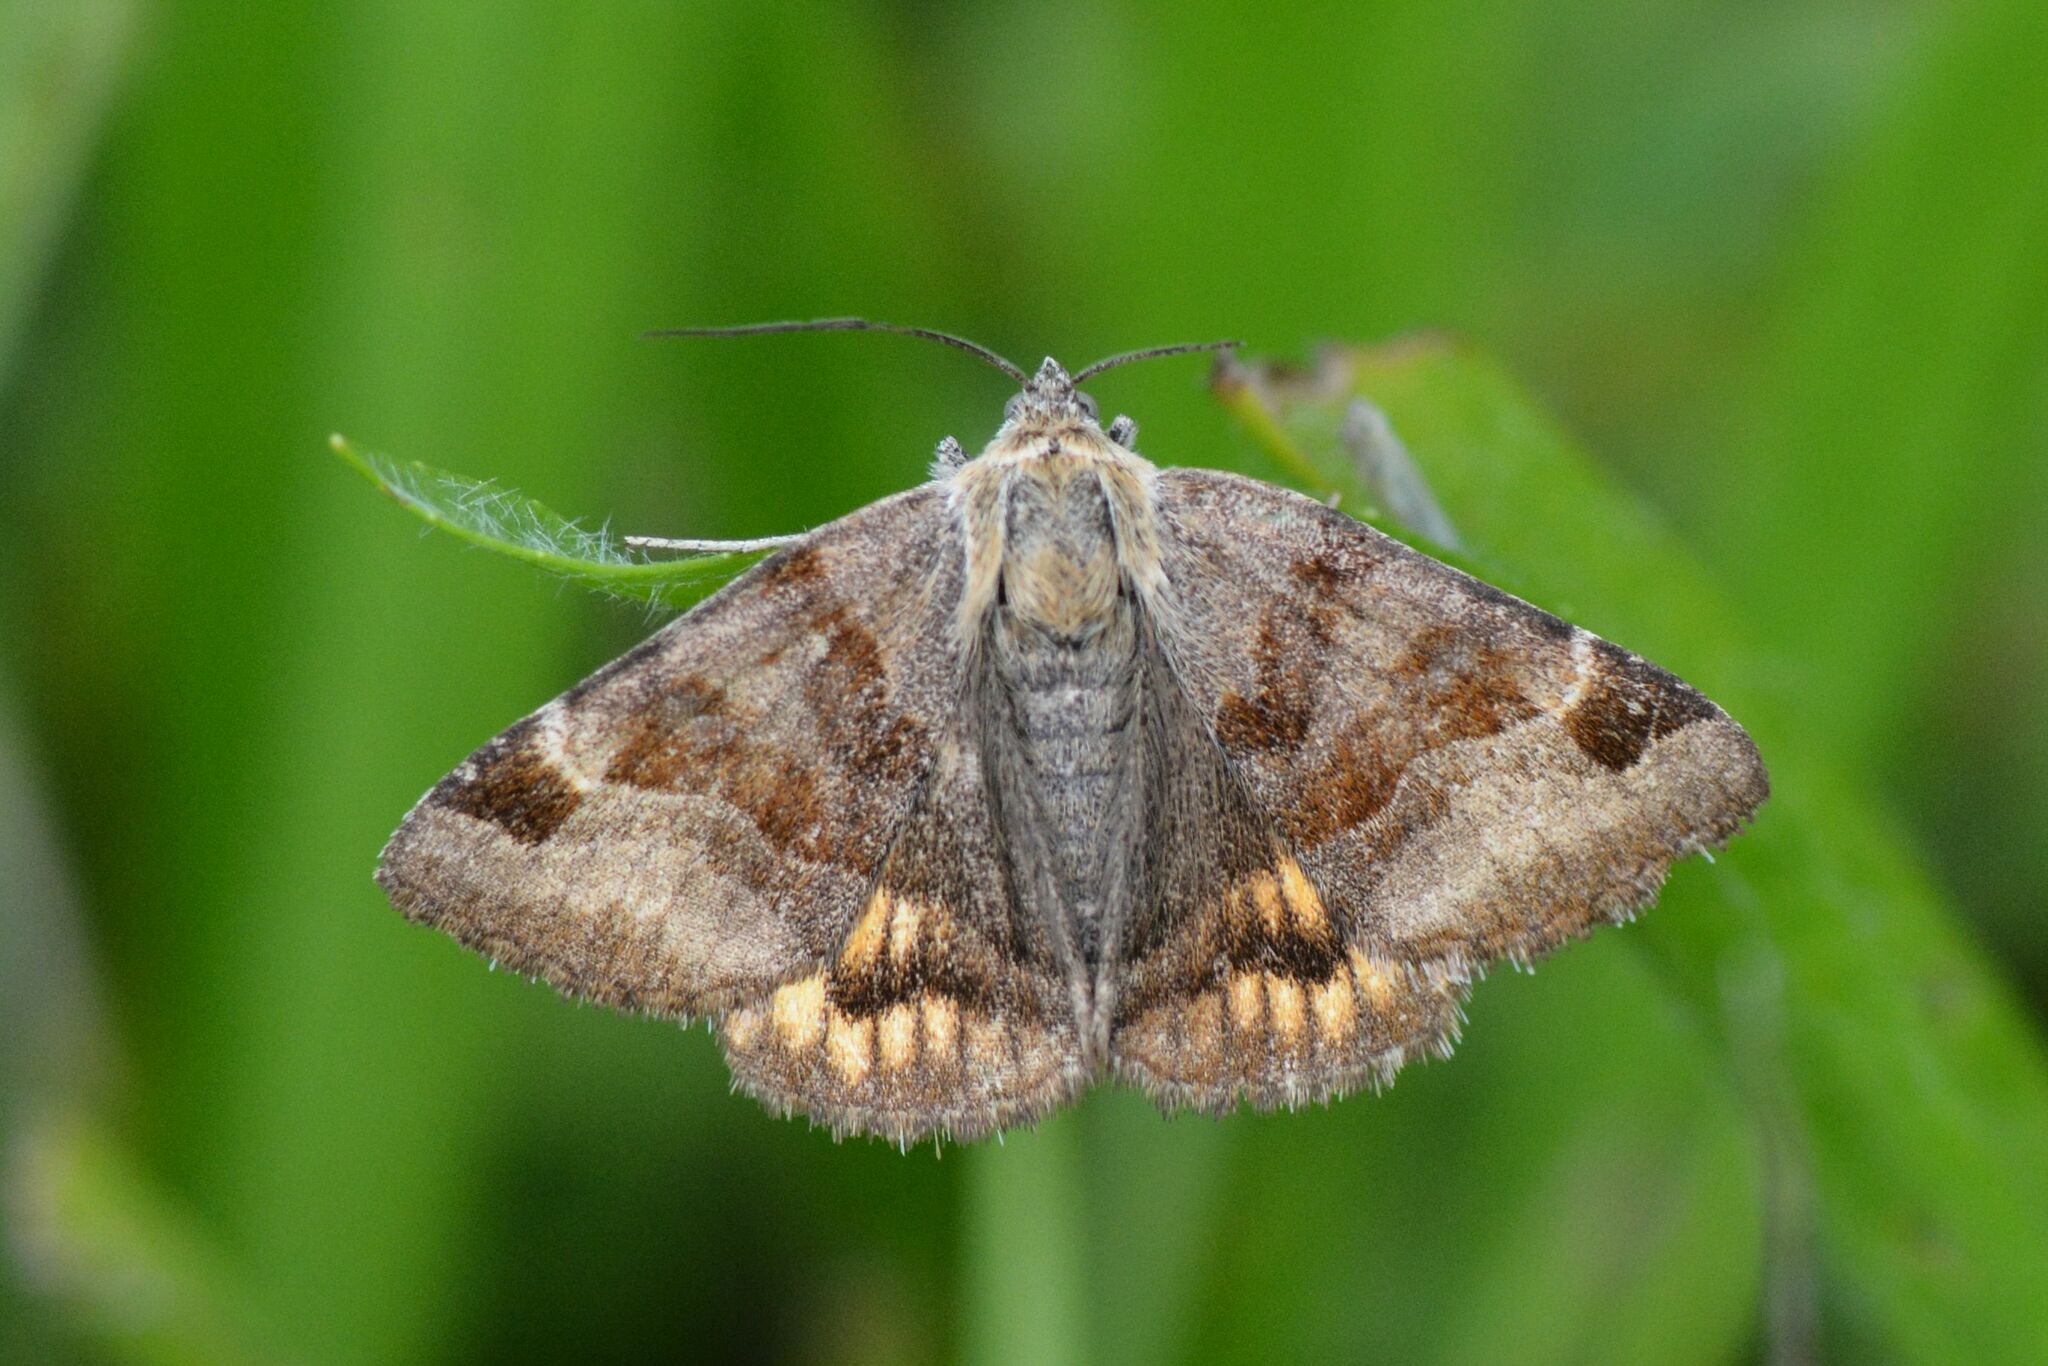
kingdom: Animalia
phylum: Arthropoda
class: Insecta
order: Lepidoptera
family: Erebidae
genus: Euclidia
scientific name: Euclidia glyphica
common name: Burnet companion
